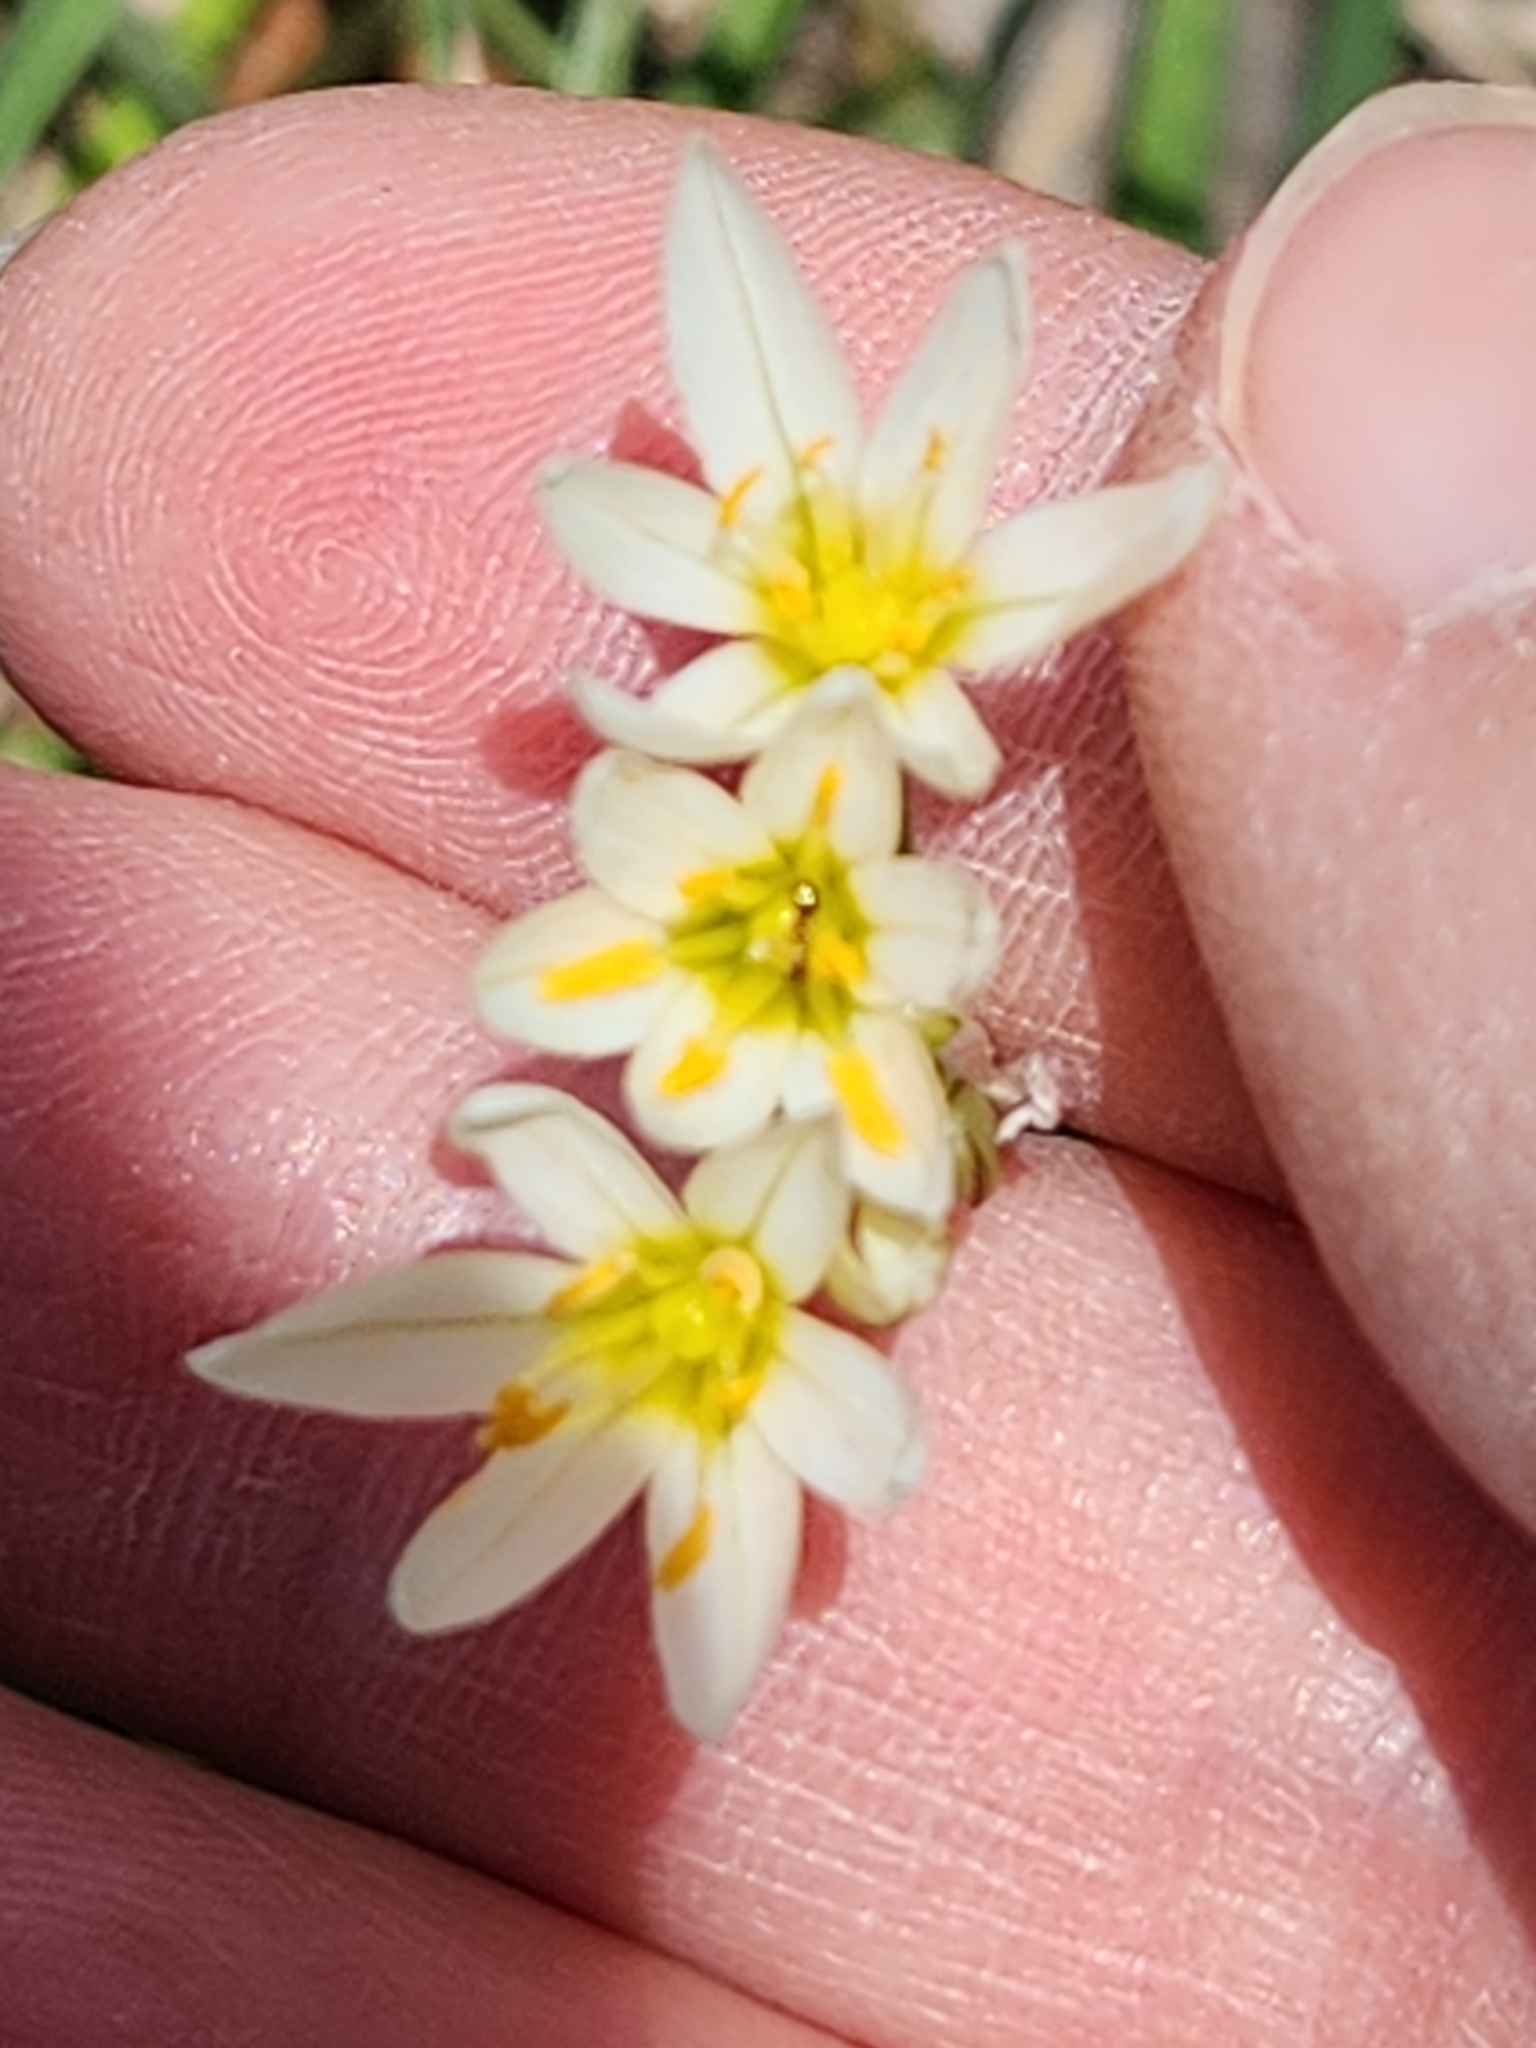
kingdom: Plantae
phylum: Tracheophyta
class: Liliopsida
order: Asparagales
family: Amaryllidaceae
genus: Nothoscordum
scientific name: Nothoscordum bivalve
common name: Crow-poison
